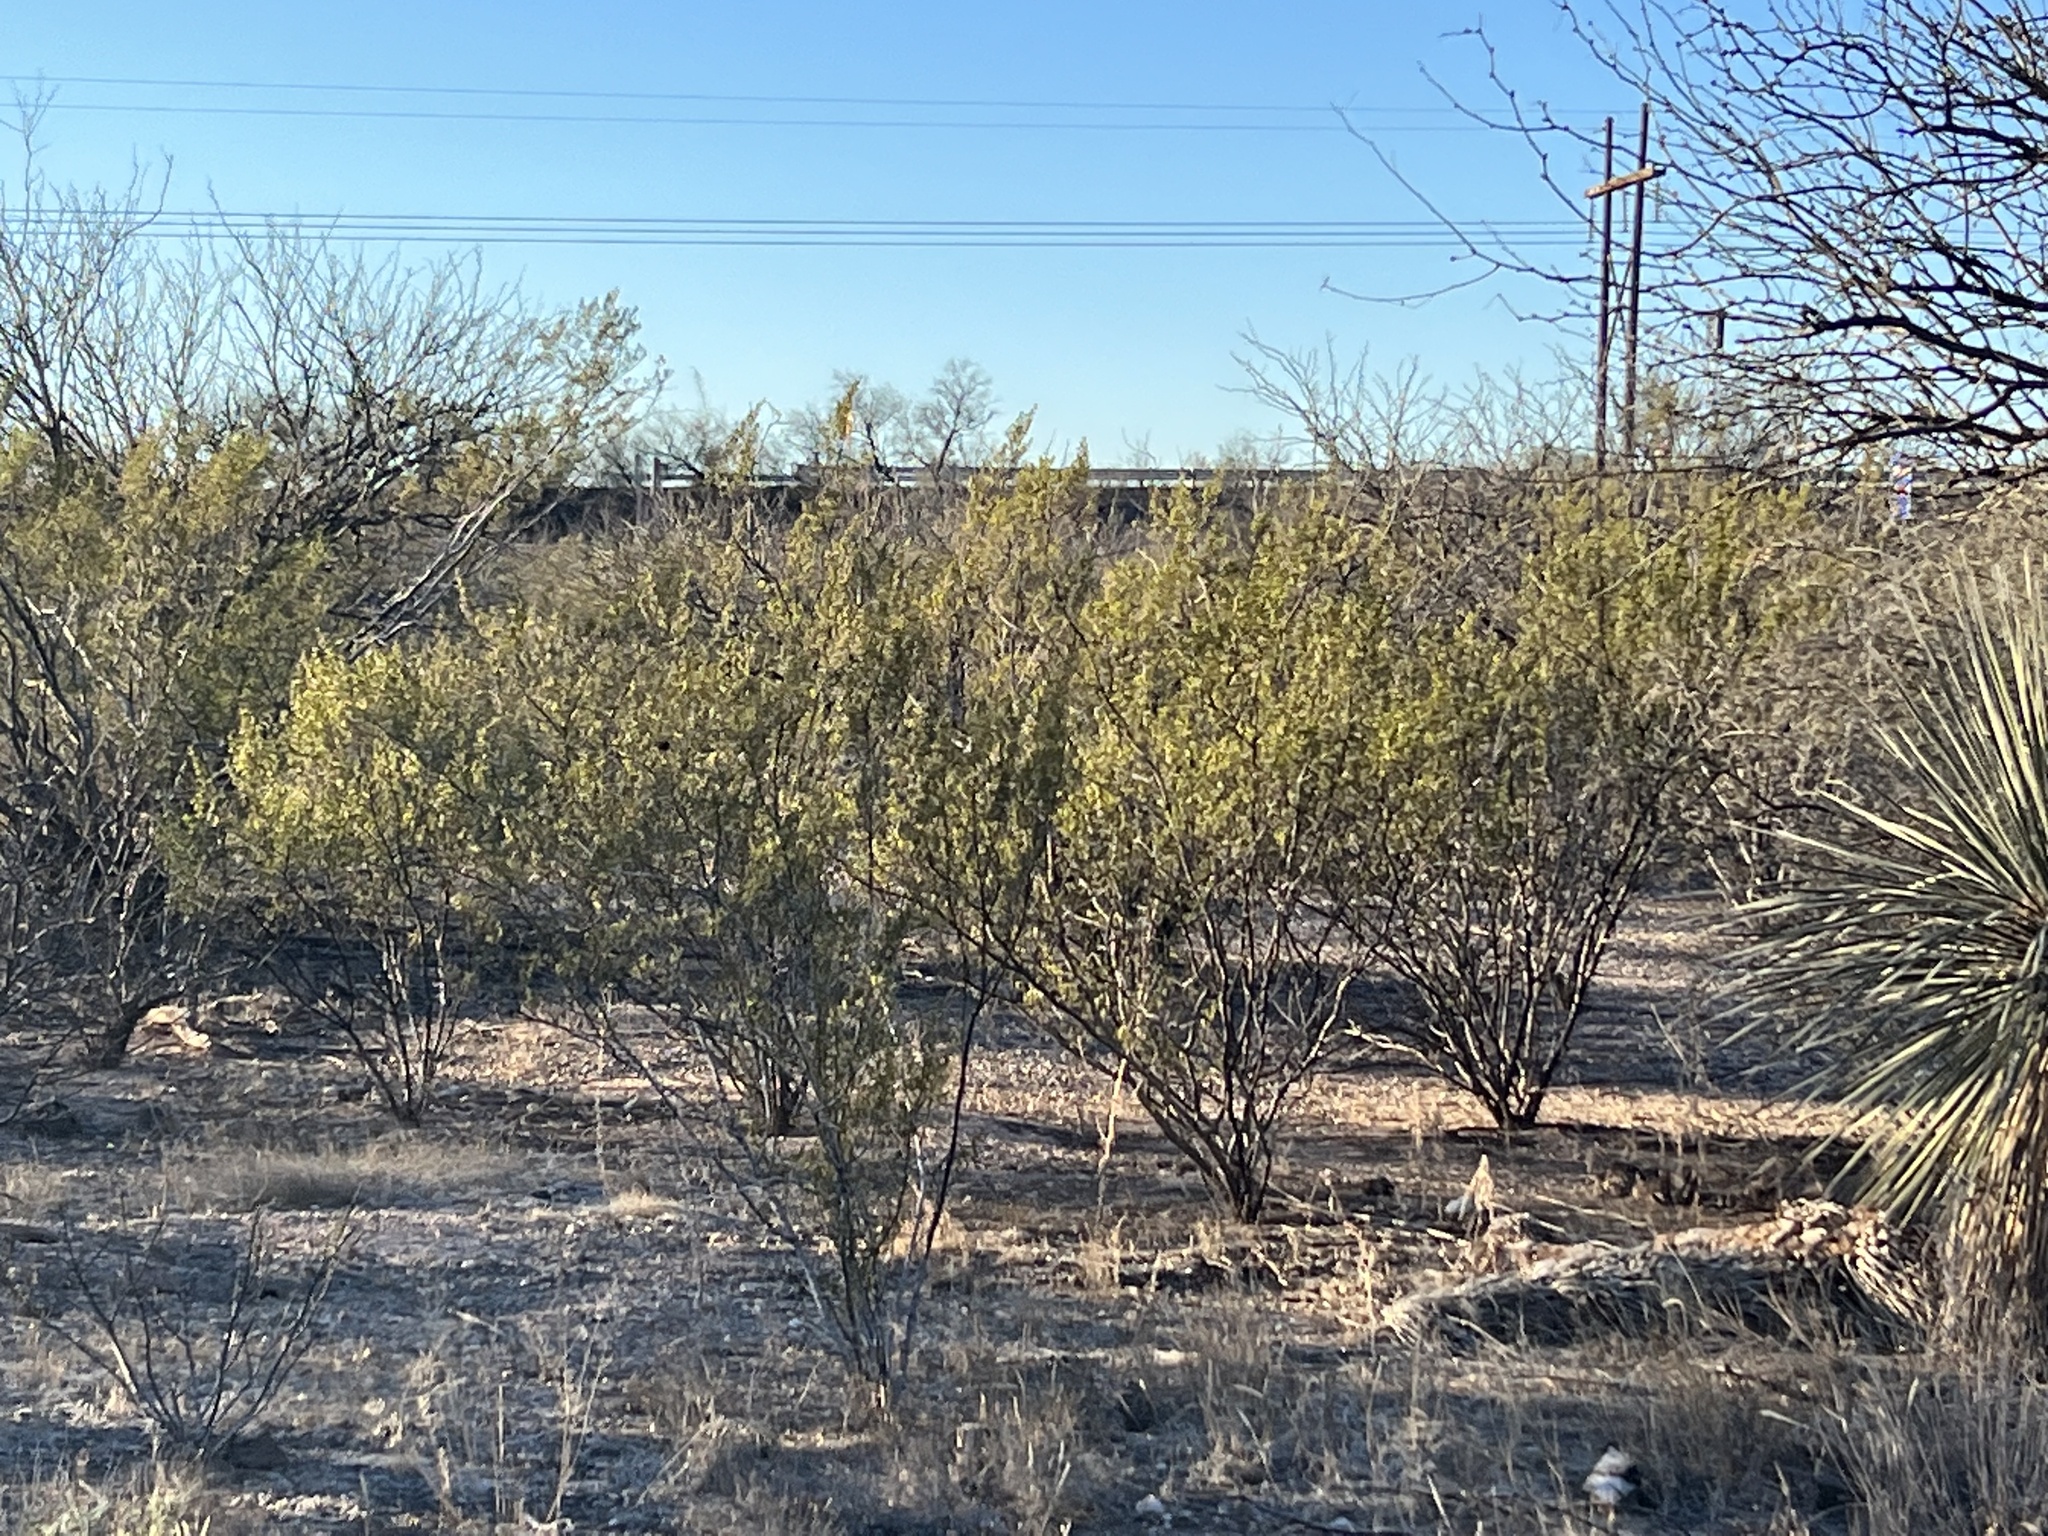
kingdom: Plantae
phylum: Tracheophyta
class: Magnoliopsida
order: Zygophyllales
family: Zygophyllaceae
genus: Larrea
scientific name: Larrea tridentata
